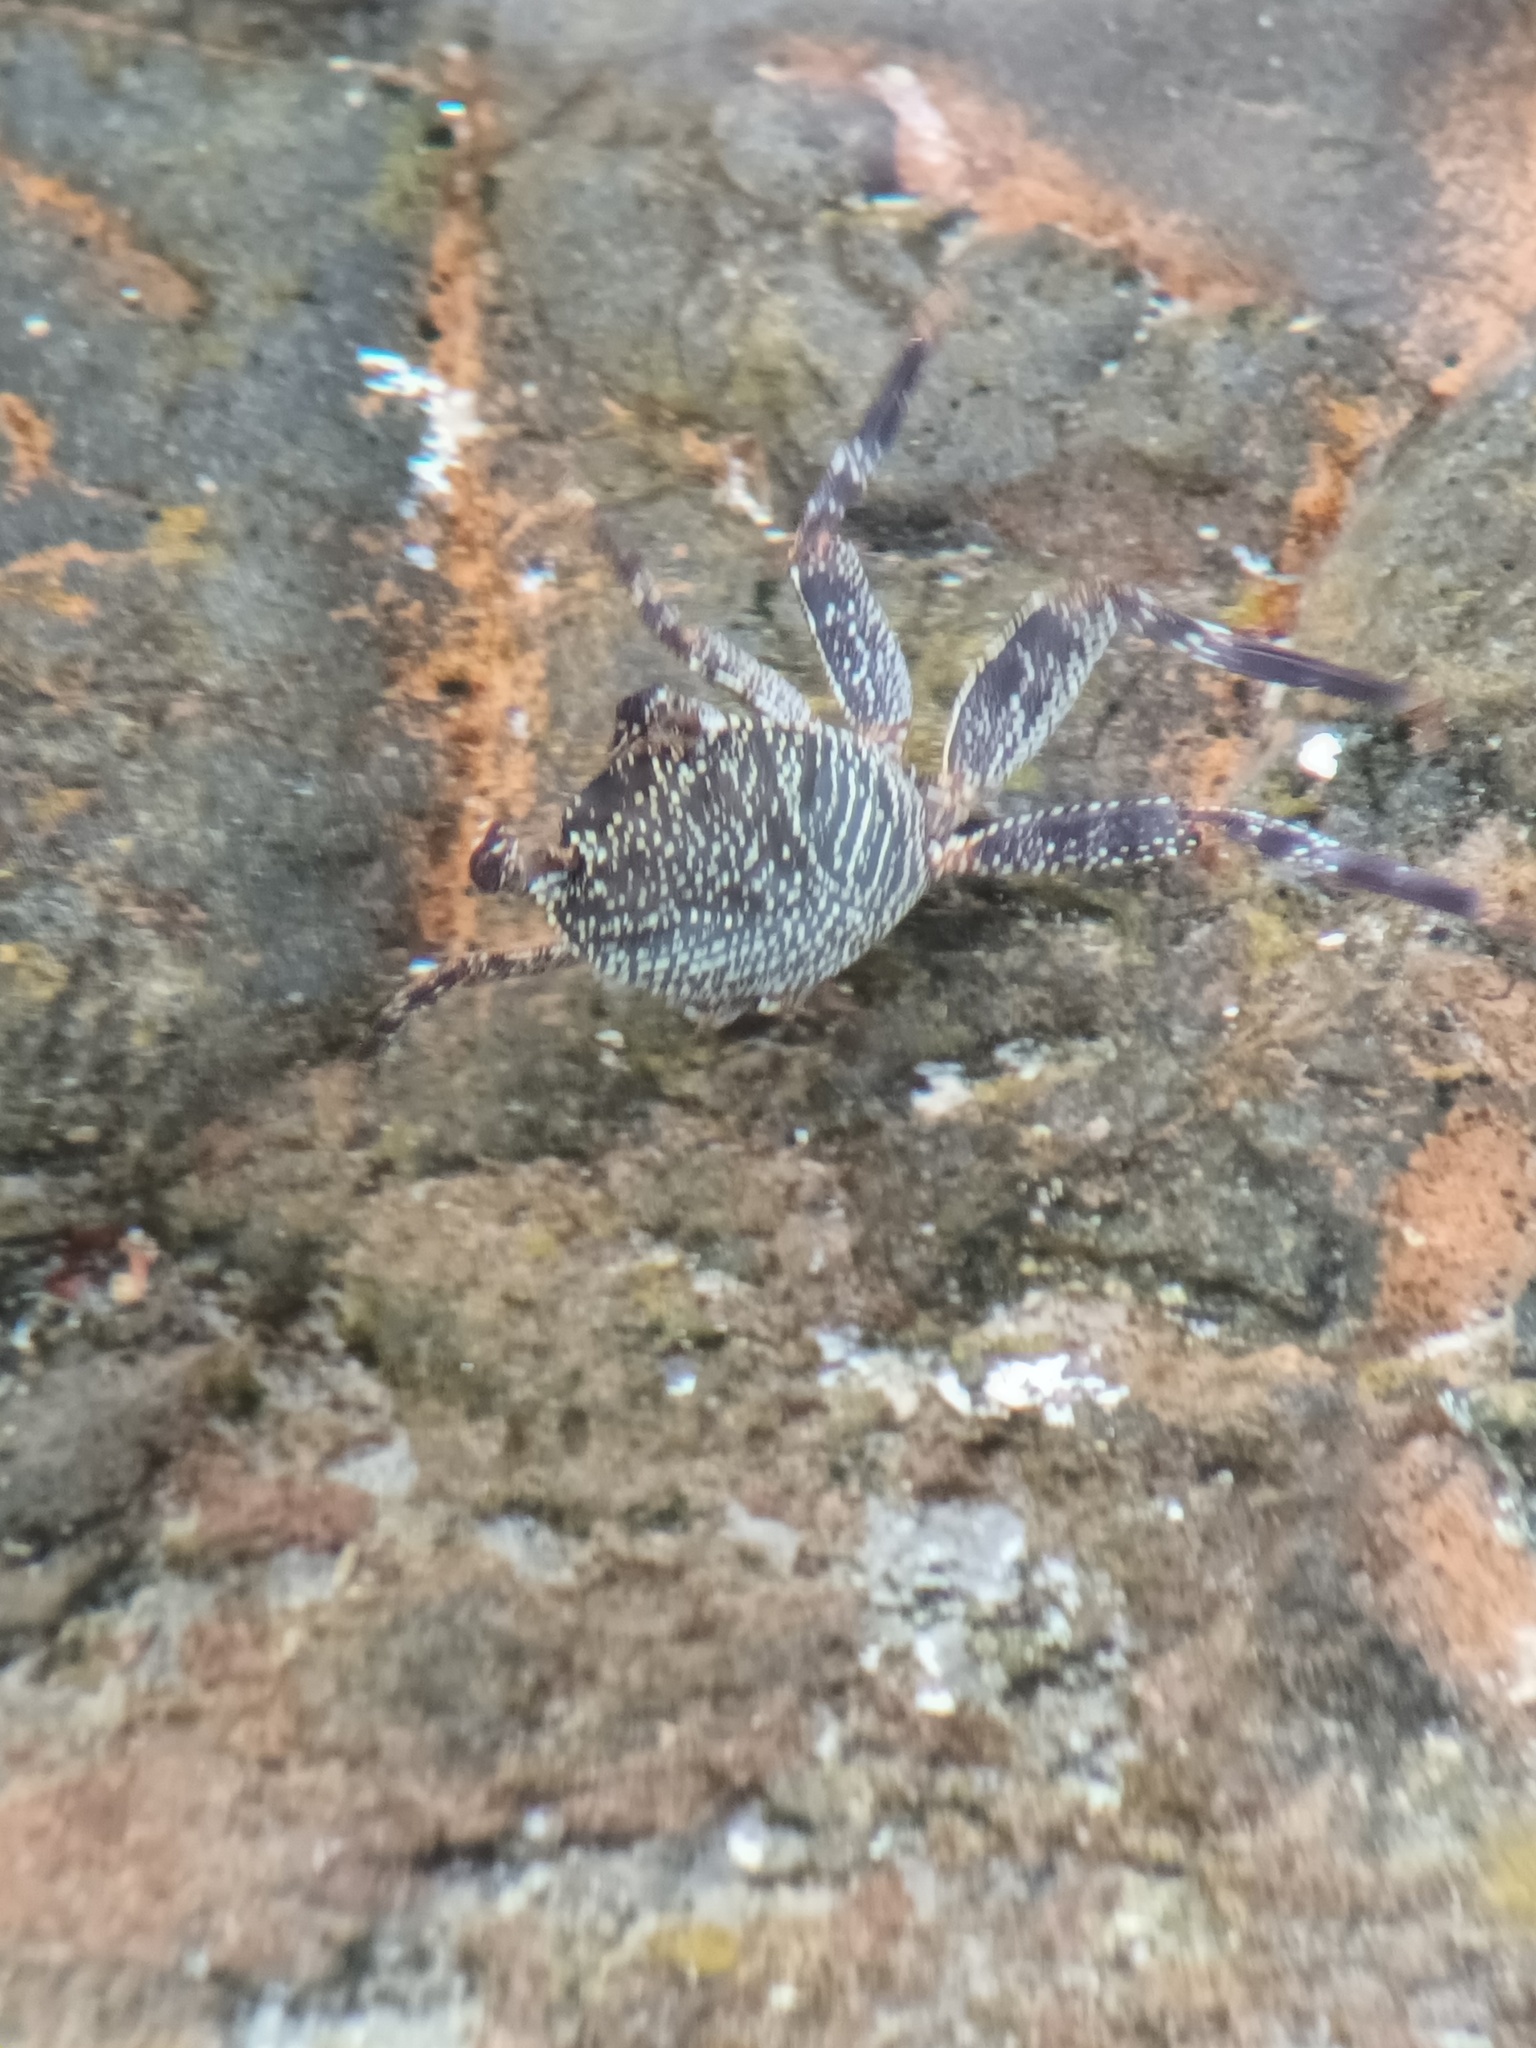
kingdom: Animalia
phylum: Arthropoda
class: Malacostraca
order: Decapoda
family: Grapsidae
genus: Grapsus
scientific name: Grapsus tenuicrustatus
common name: Natal lightfoot crab
